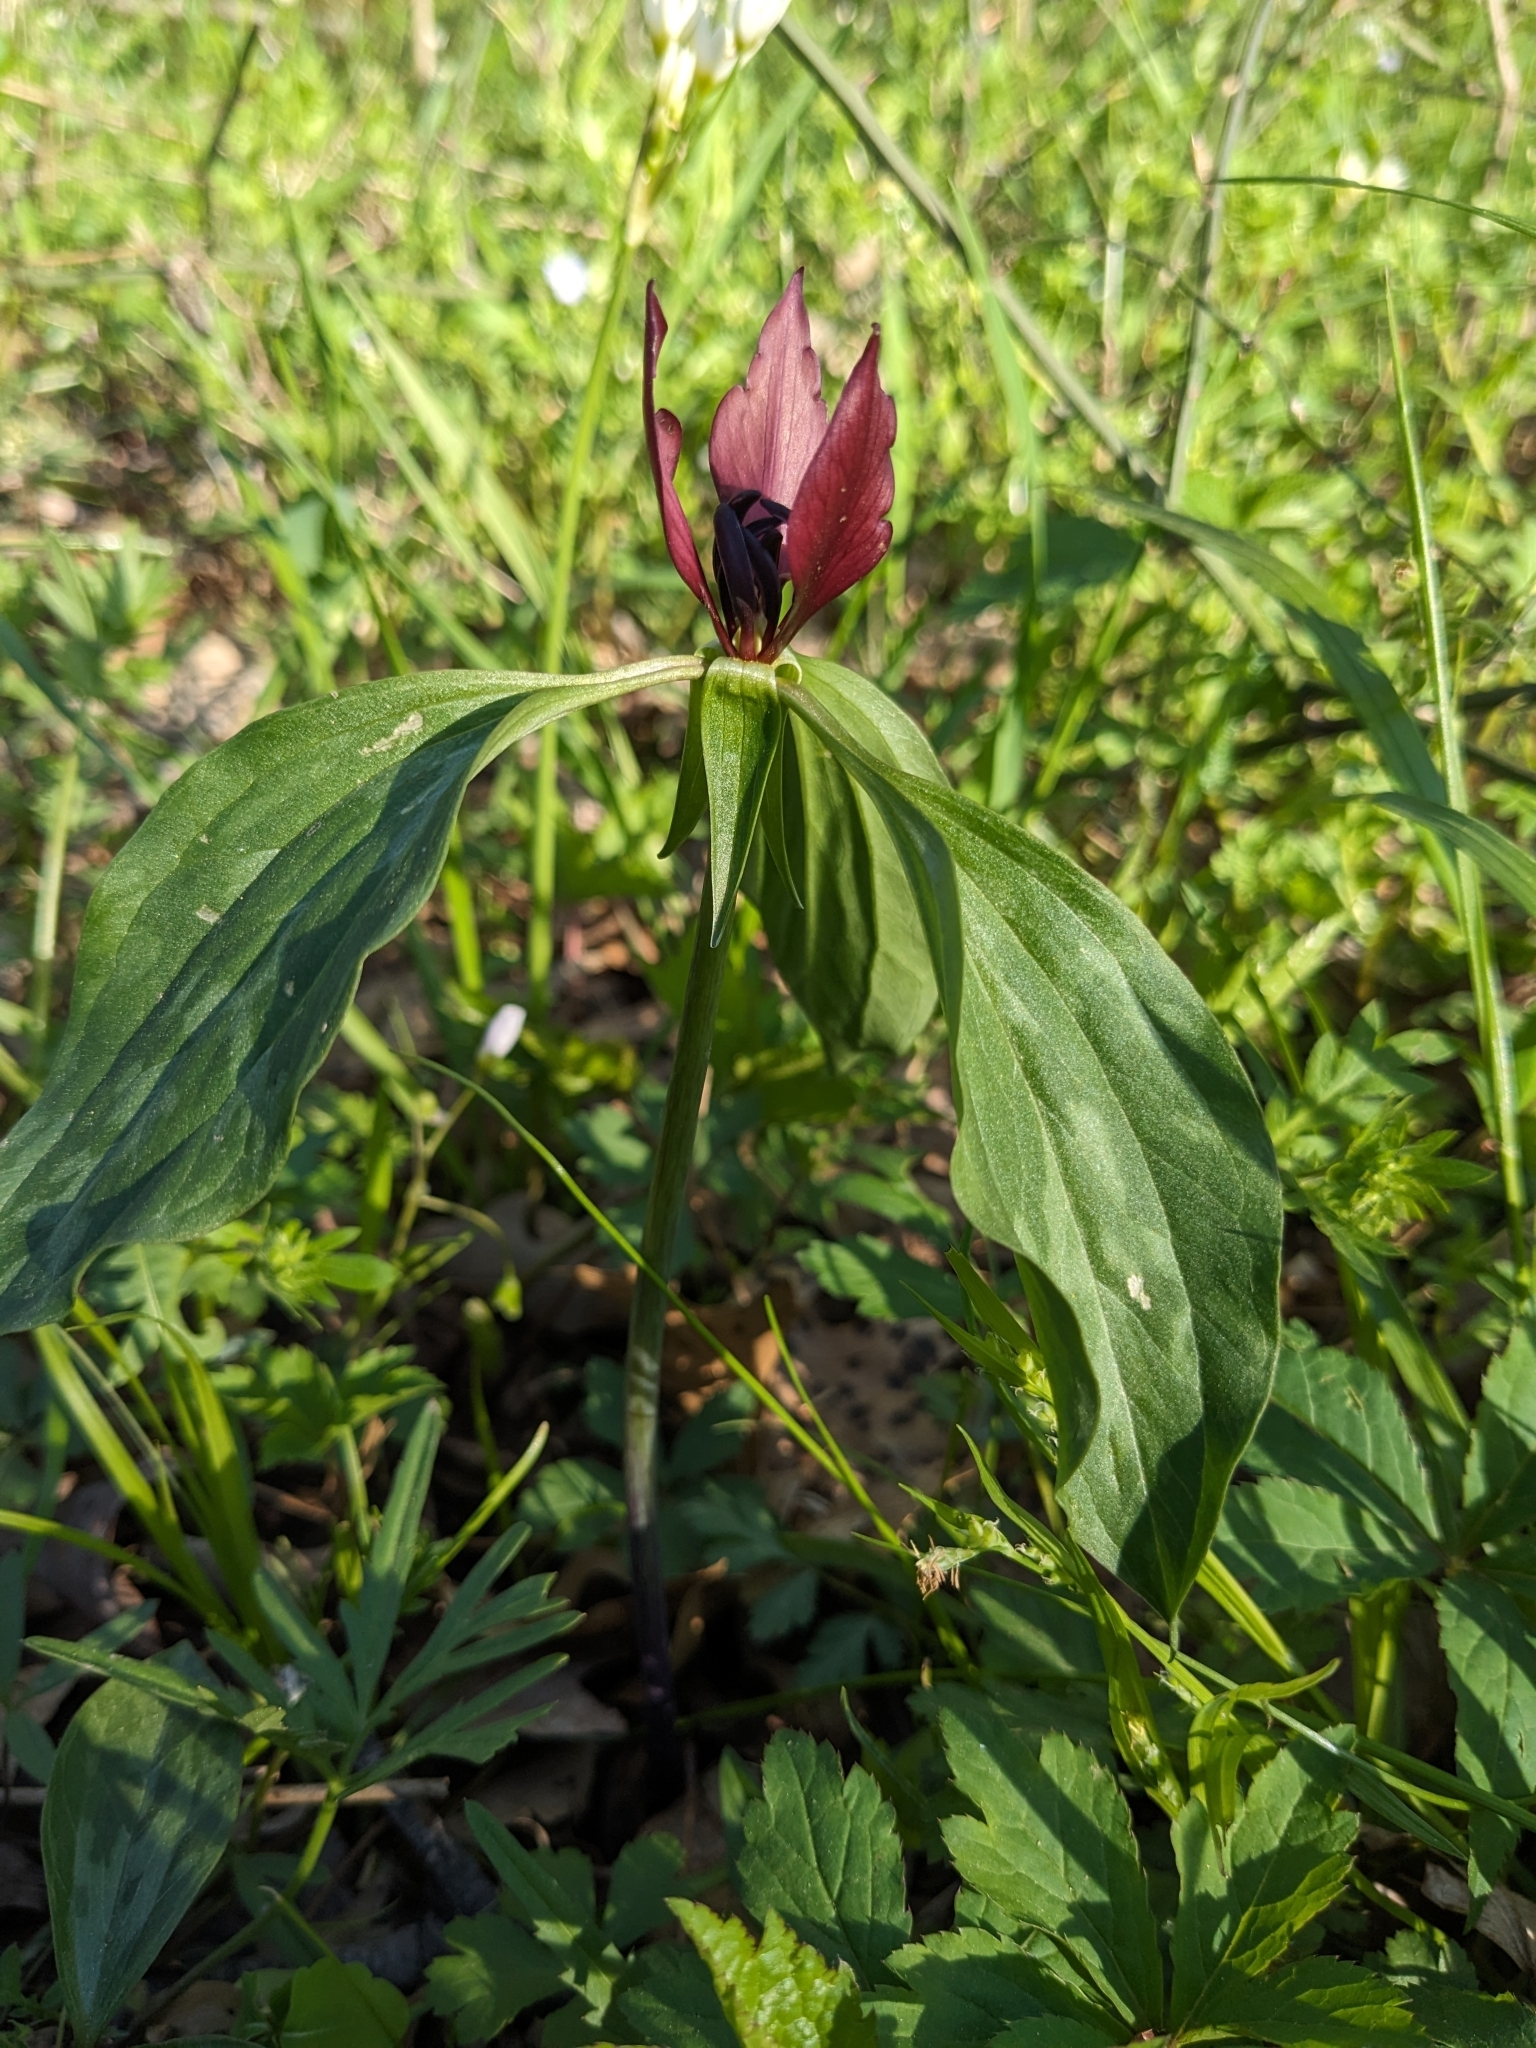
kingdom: Plantae
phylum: Tracheophyta
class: Liliopsida
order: Liliales
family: Melanthiaceae
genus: Trillium
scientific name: Trillium recurvatum
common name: Bloody butcher
